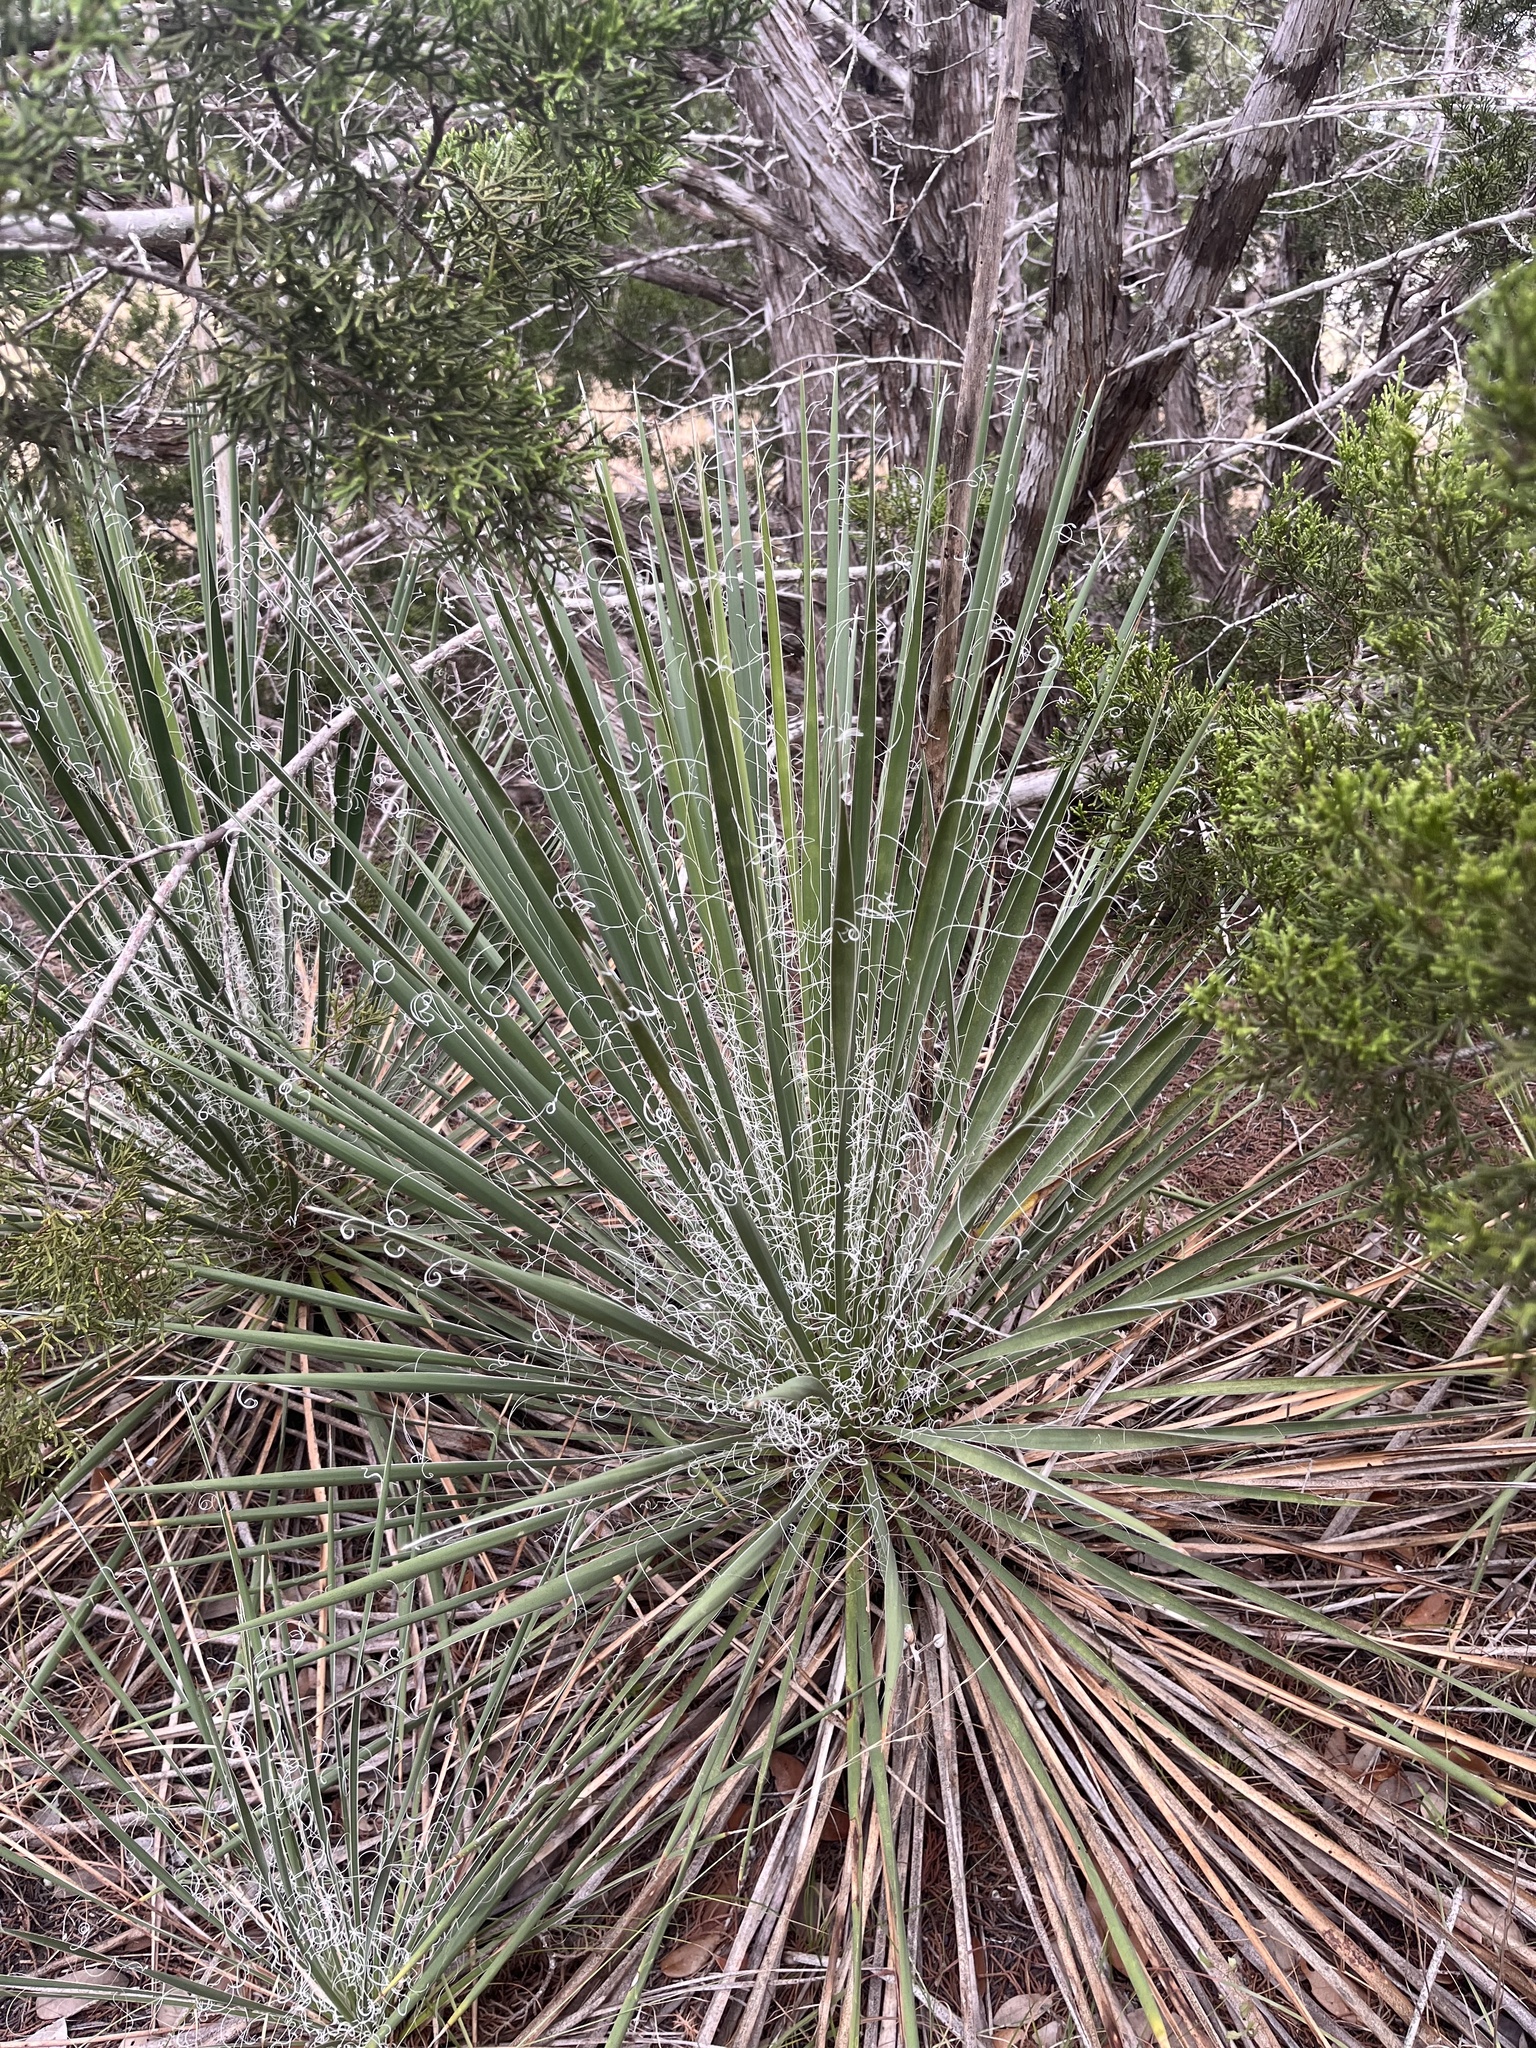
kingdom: Plantae
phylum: Tracheophyta
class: Liliopsida
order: Asparagales
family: Asparagaceae
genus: Yucca
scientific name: Yucca constricta
